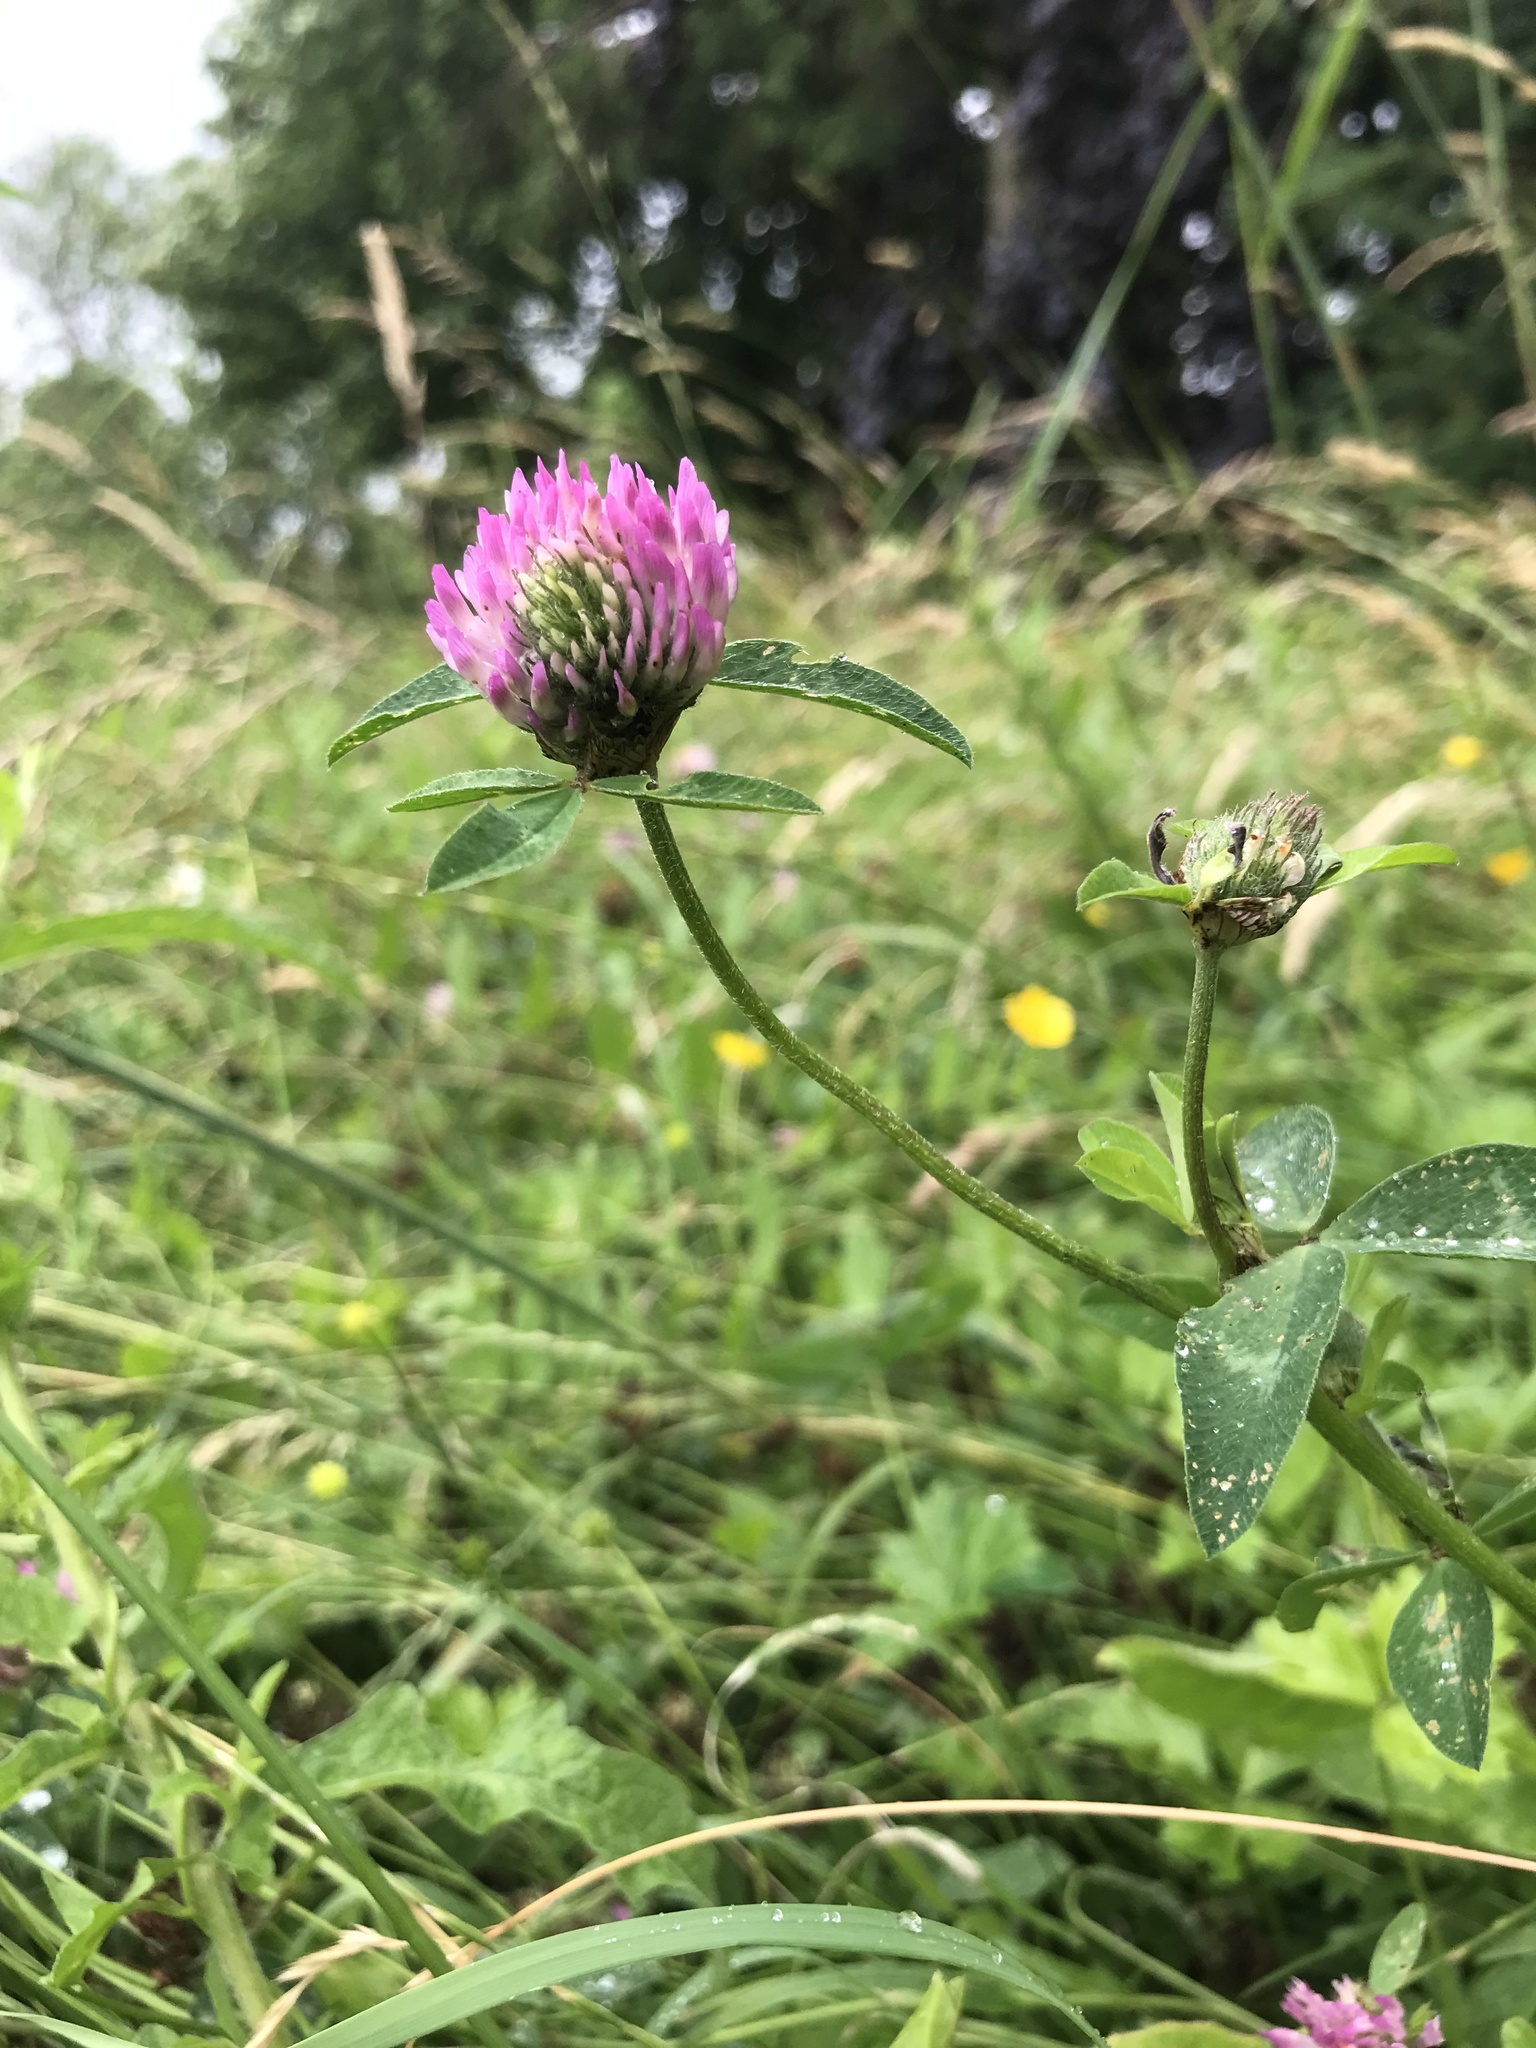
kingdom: Plantae
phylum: Tracheophyta
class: Magnoliopsida
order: Fabales
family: Fabaceae
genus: Trifolium
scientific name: Trifolium pratense
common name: Red clover
